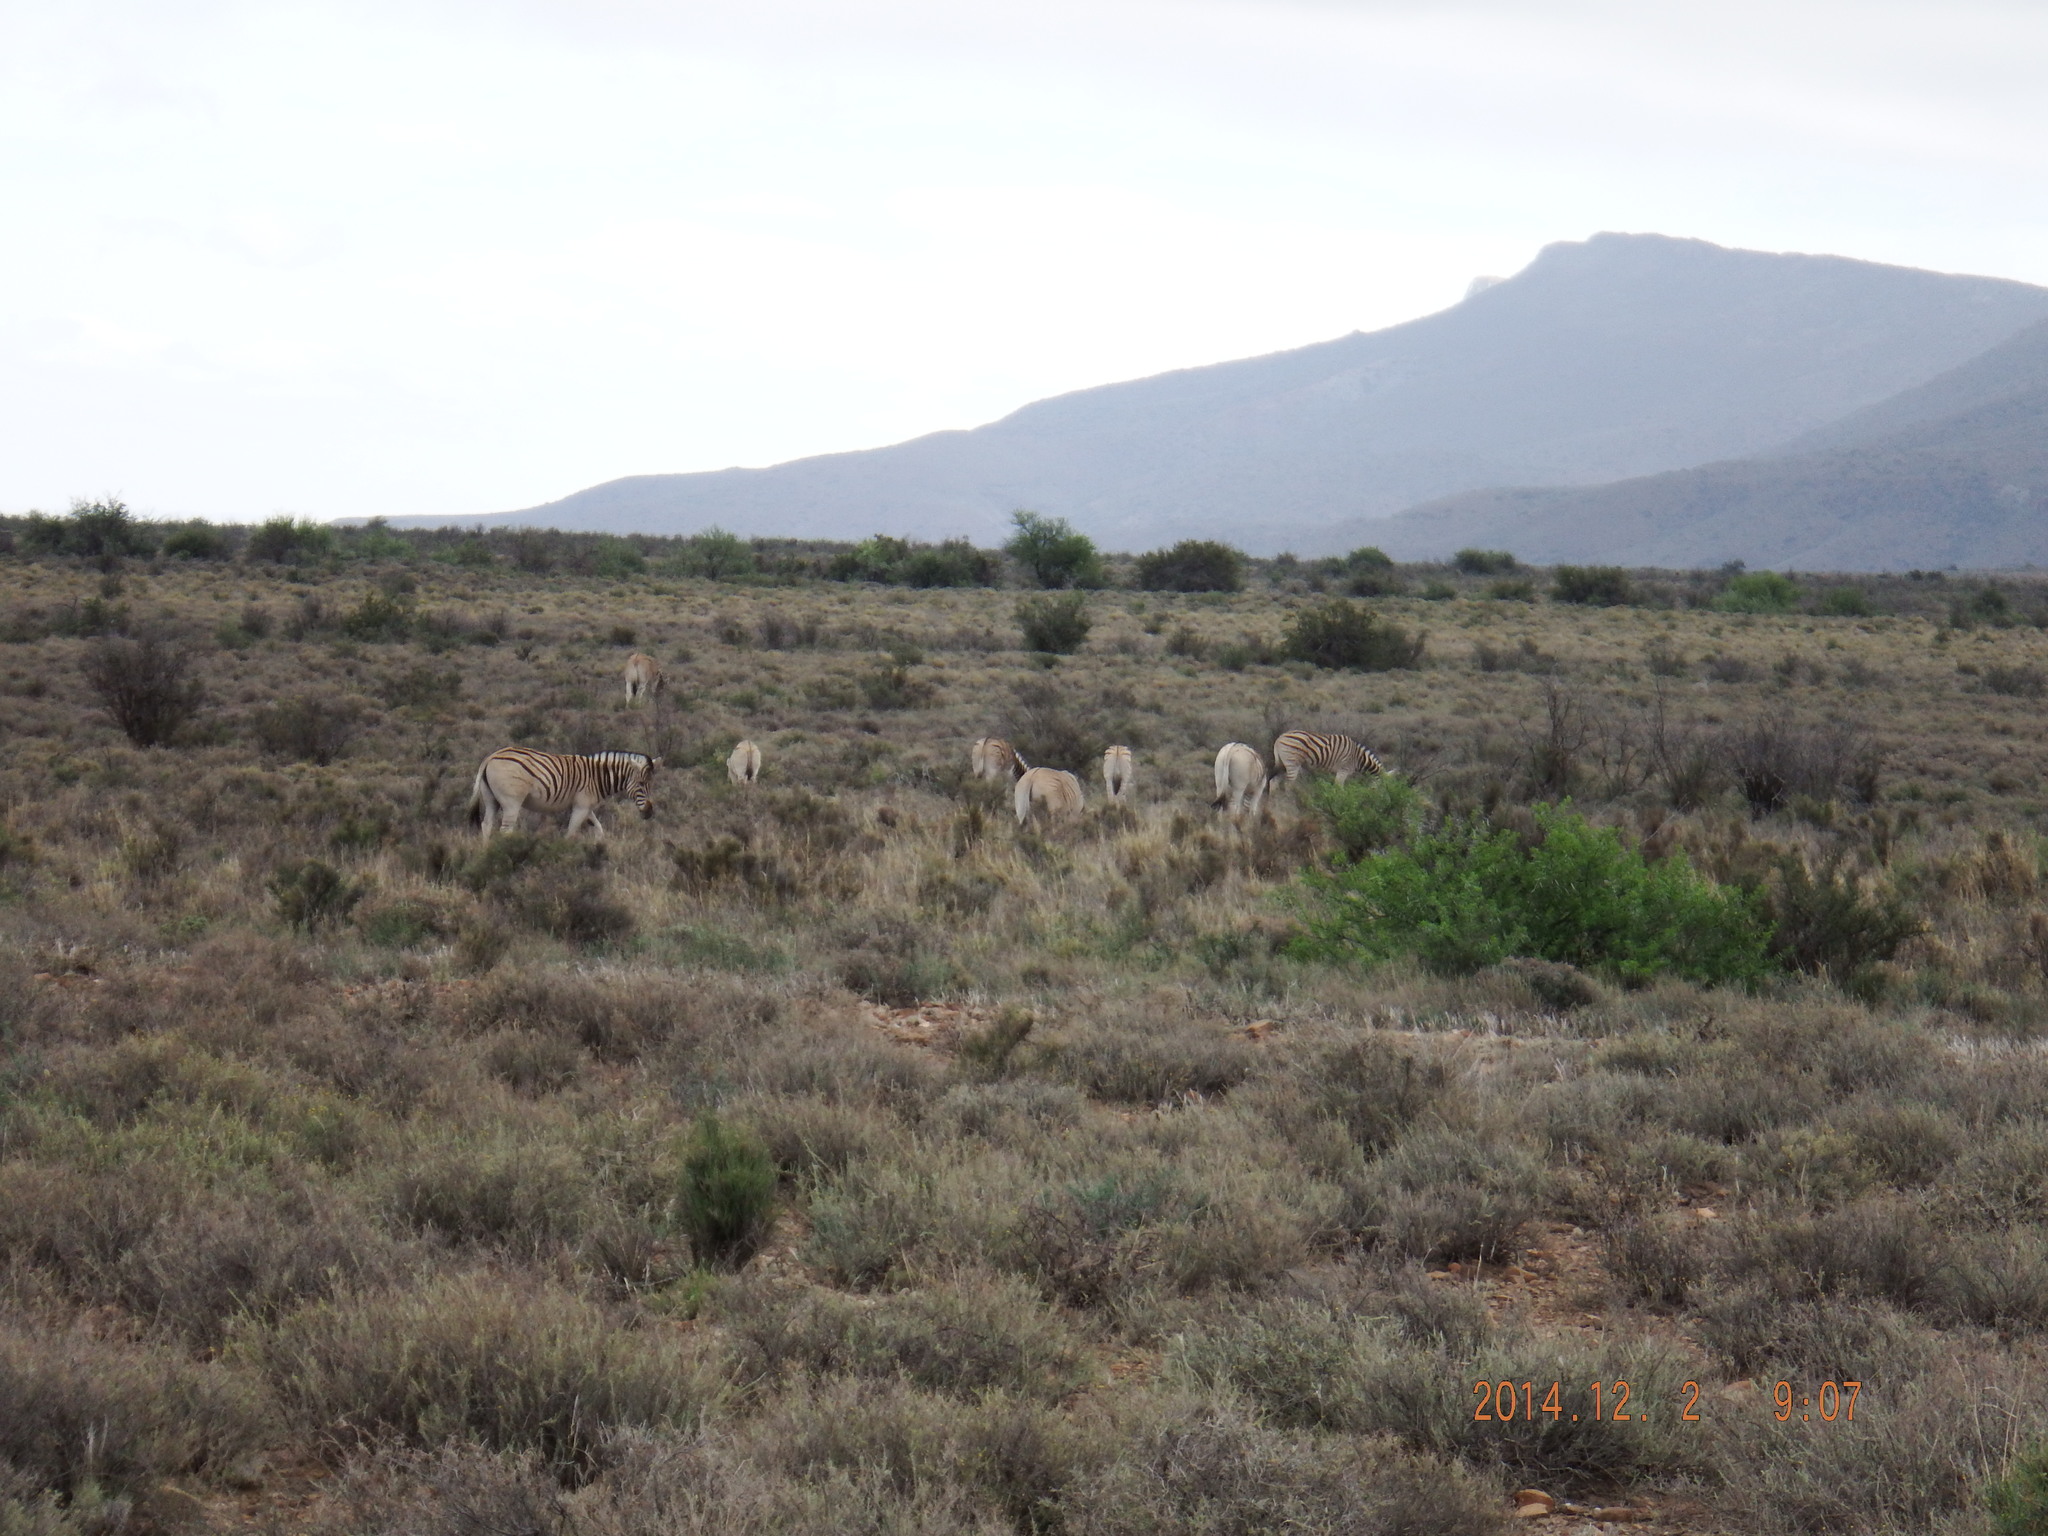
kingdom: Animalia
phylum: Chordata
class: Mammalia
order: Perissodactyla
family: Equidae
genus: Equus
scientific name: Equus quagga
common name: Plains zebra
